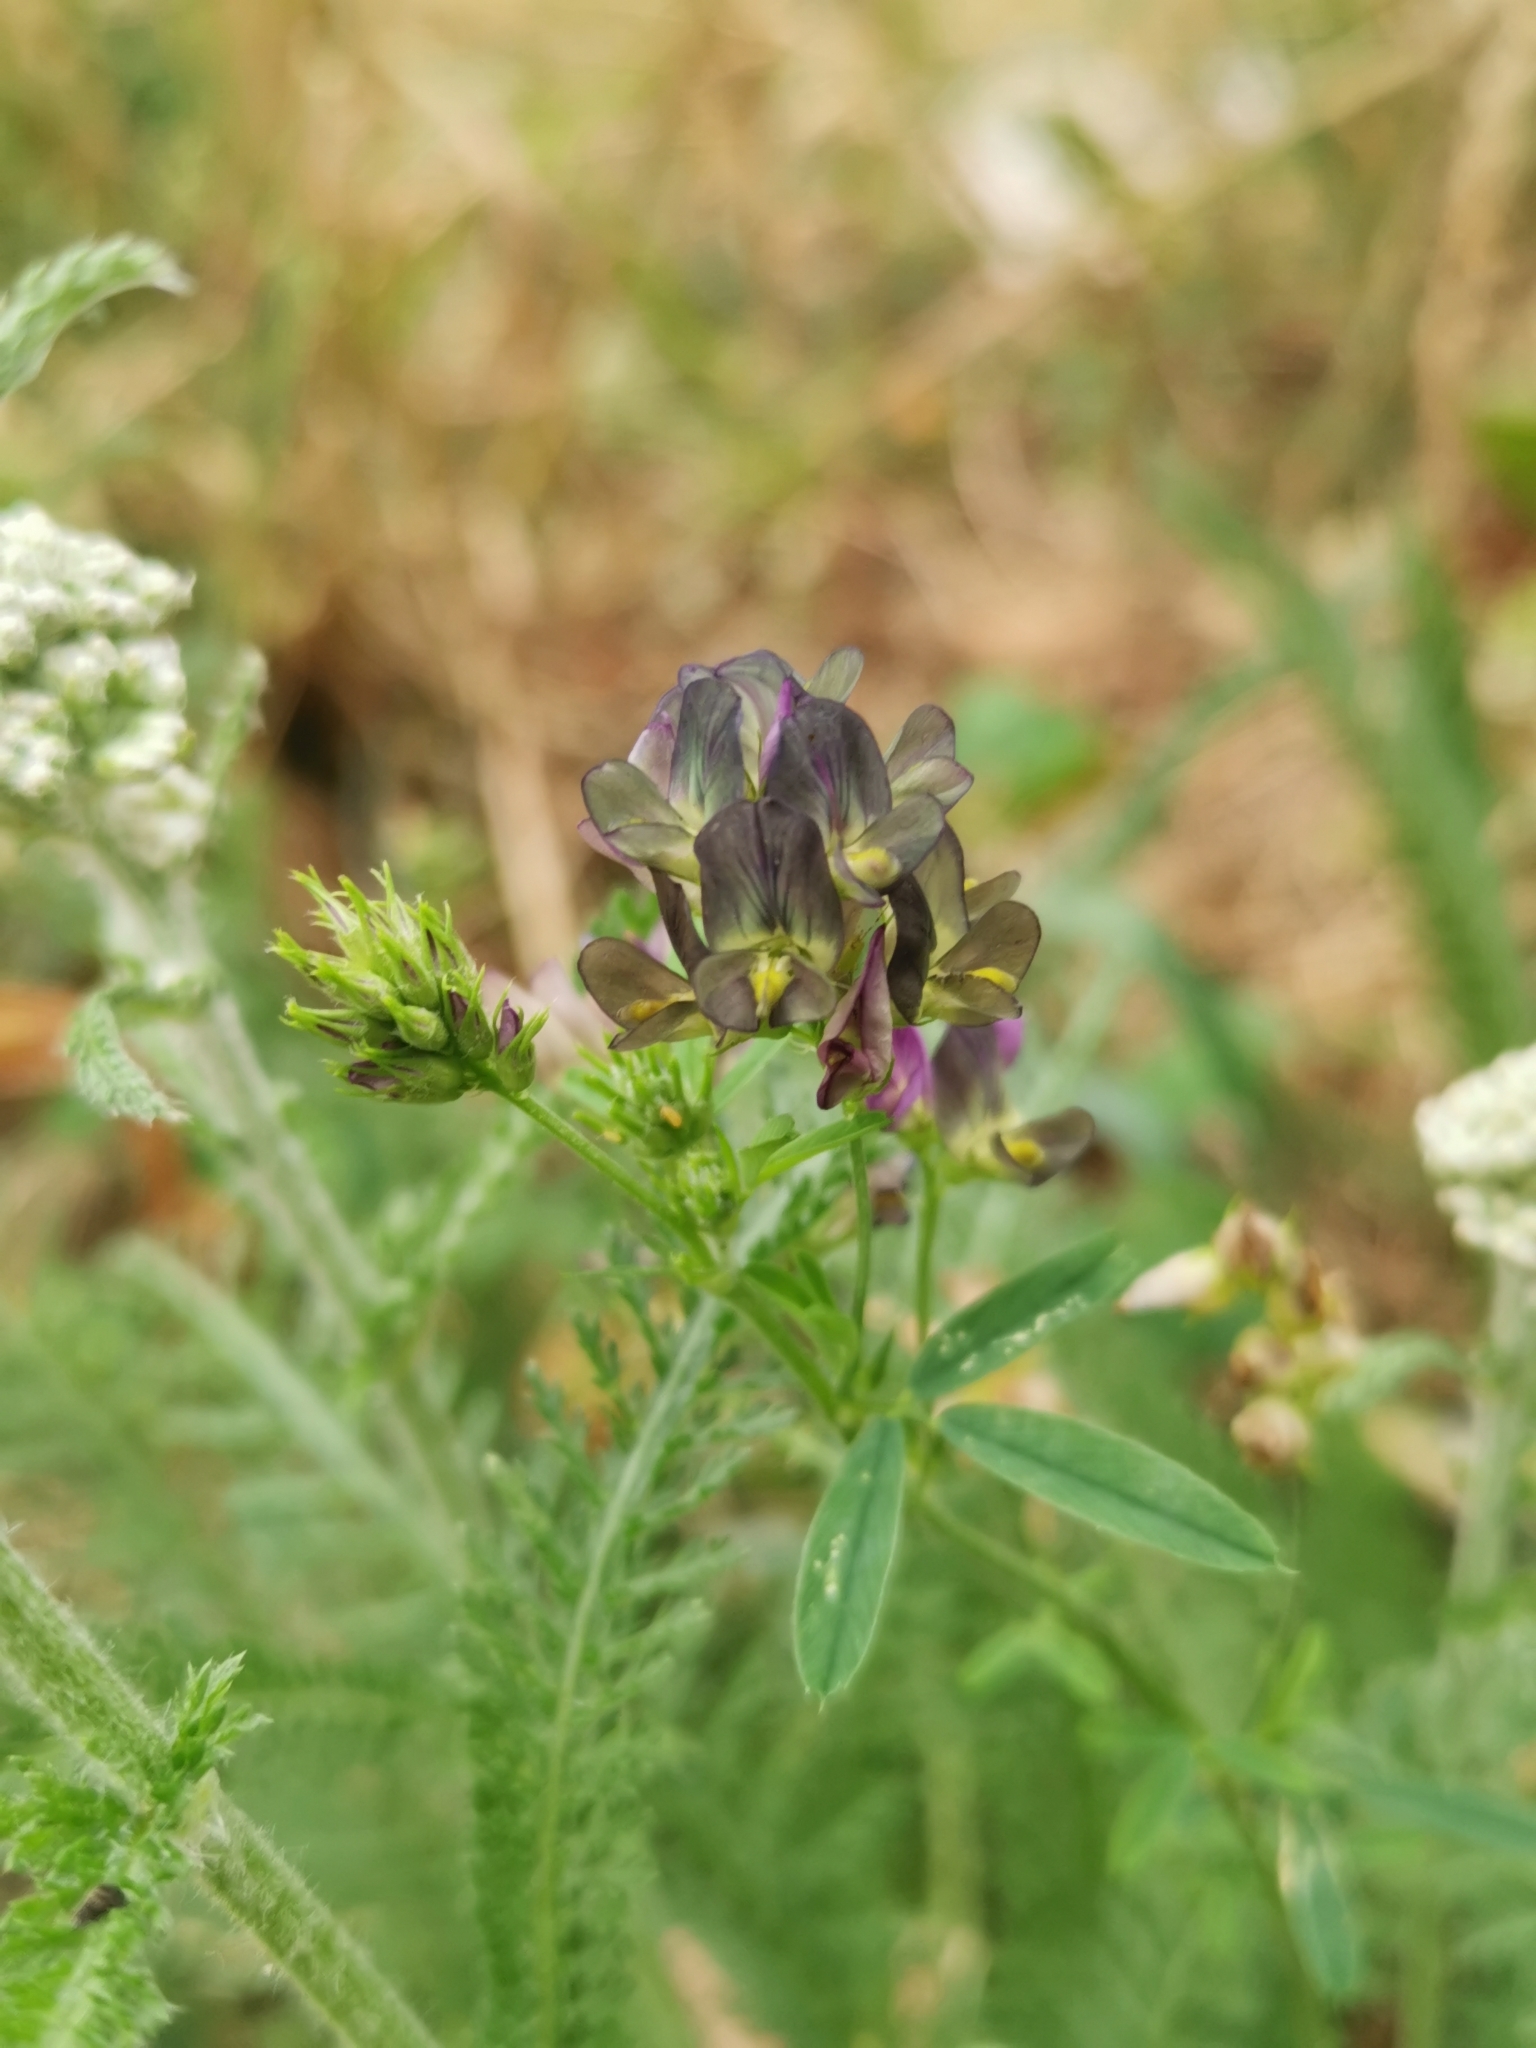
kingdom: Plantae
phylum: Tracheophyta
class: Magnoliopsida
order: Fabales
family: Fabaceae
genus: Medicago
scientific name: Medicago varia
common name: Sand lucerne
